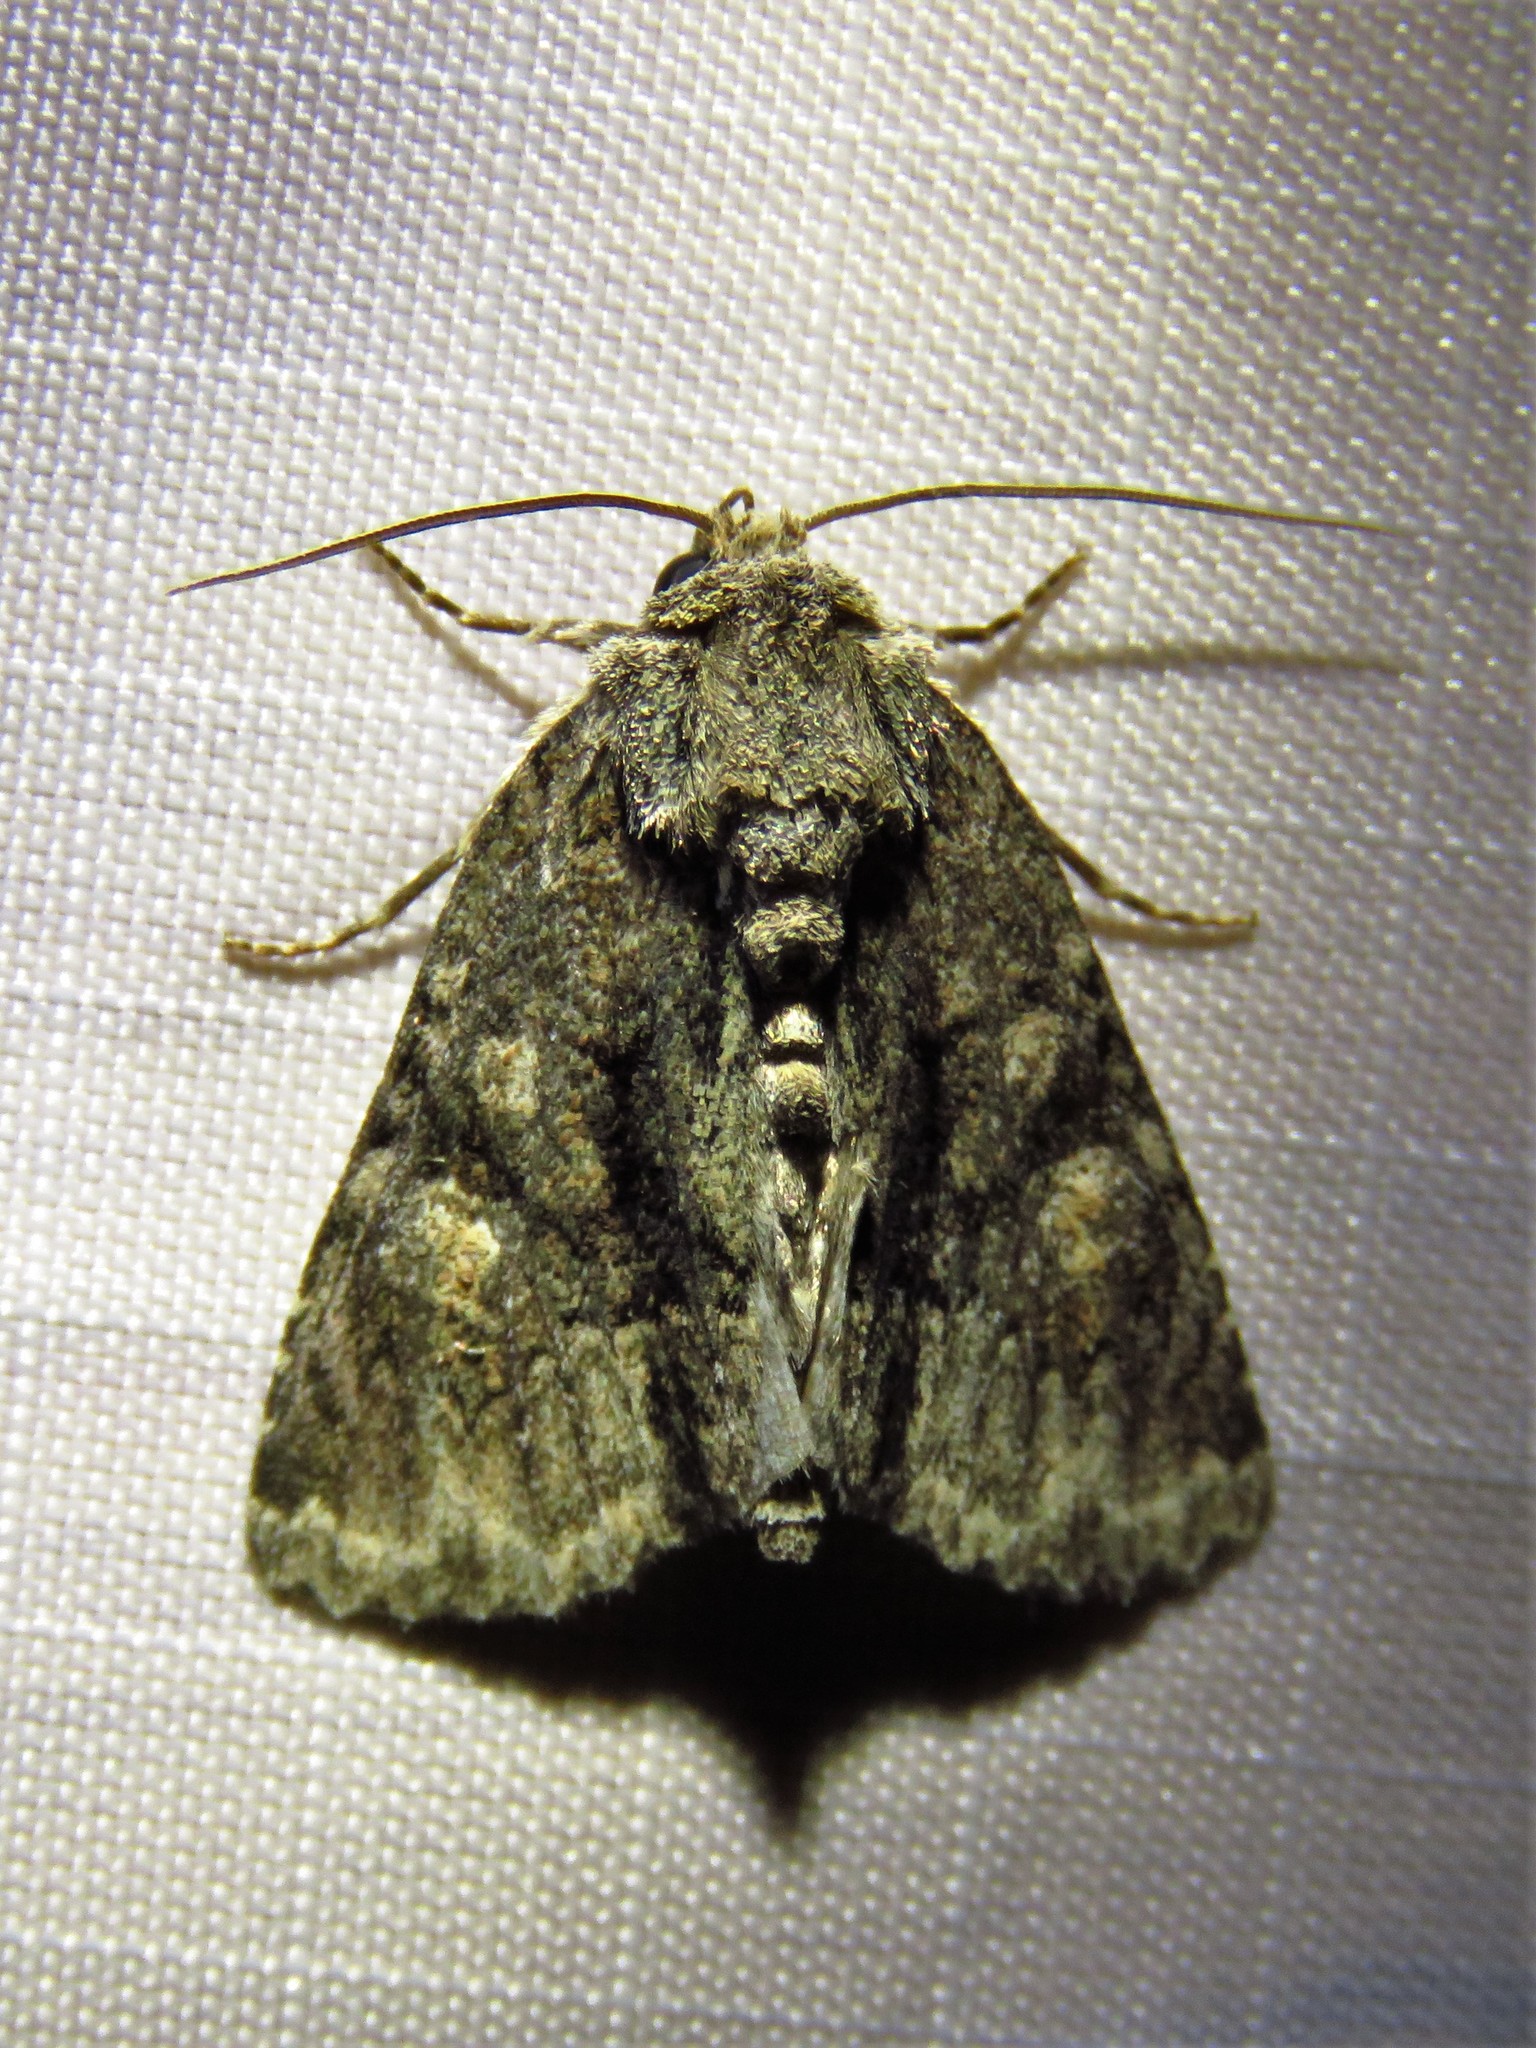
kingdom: Animalia
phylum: Arthropoda
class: Insecta
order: Lepidoptera
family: Noctuidae
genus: Phosphila
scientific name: Phosphila miselioides
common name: Spotted phosphila moth
